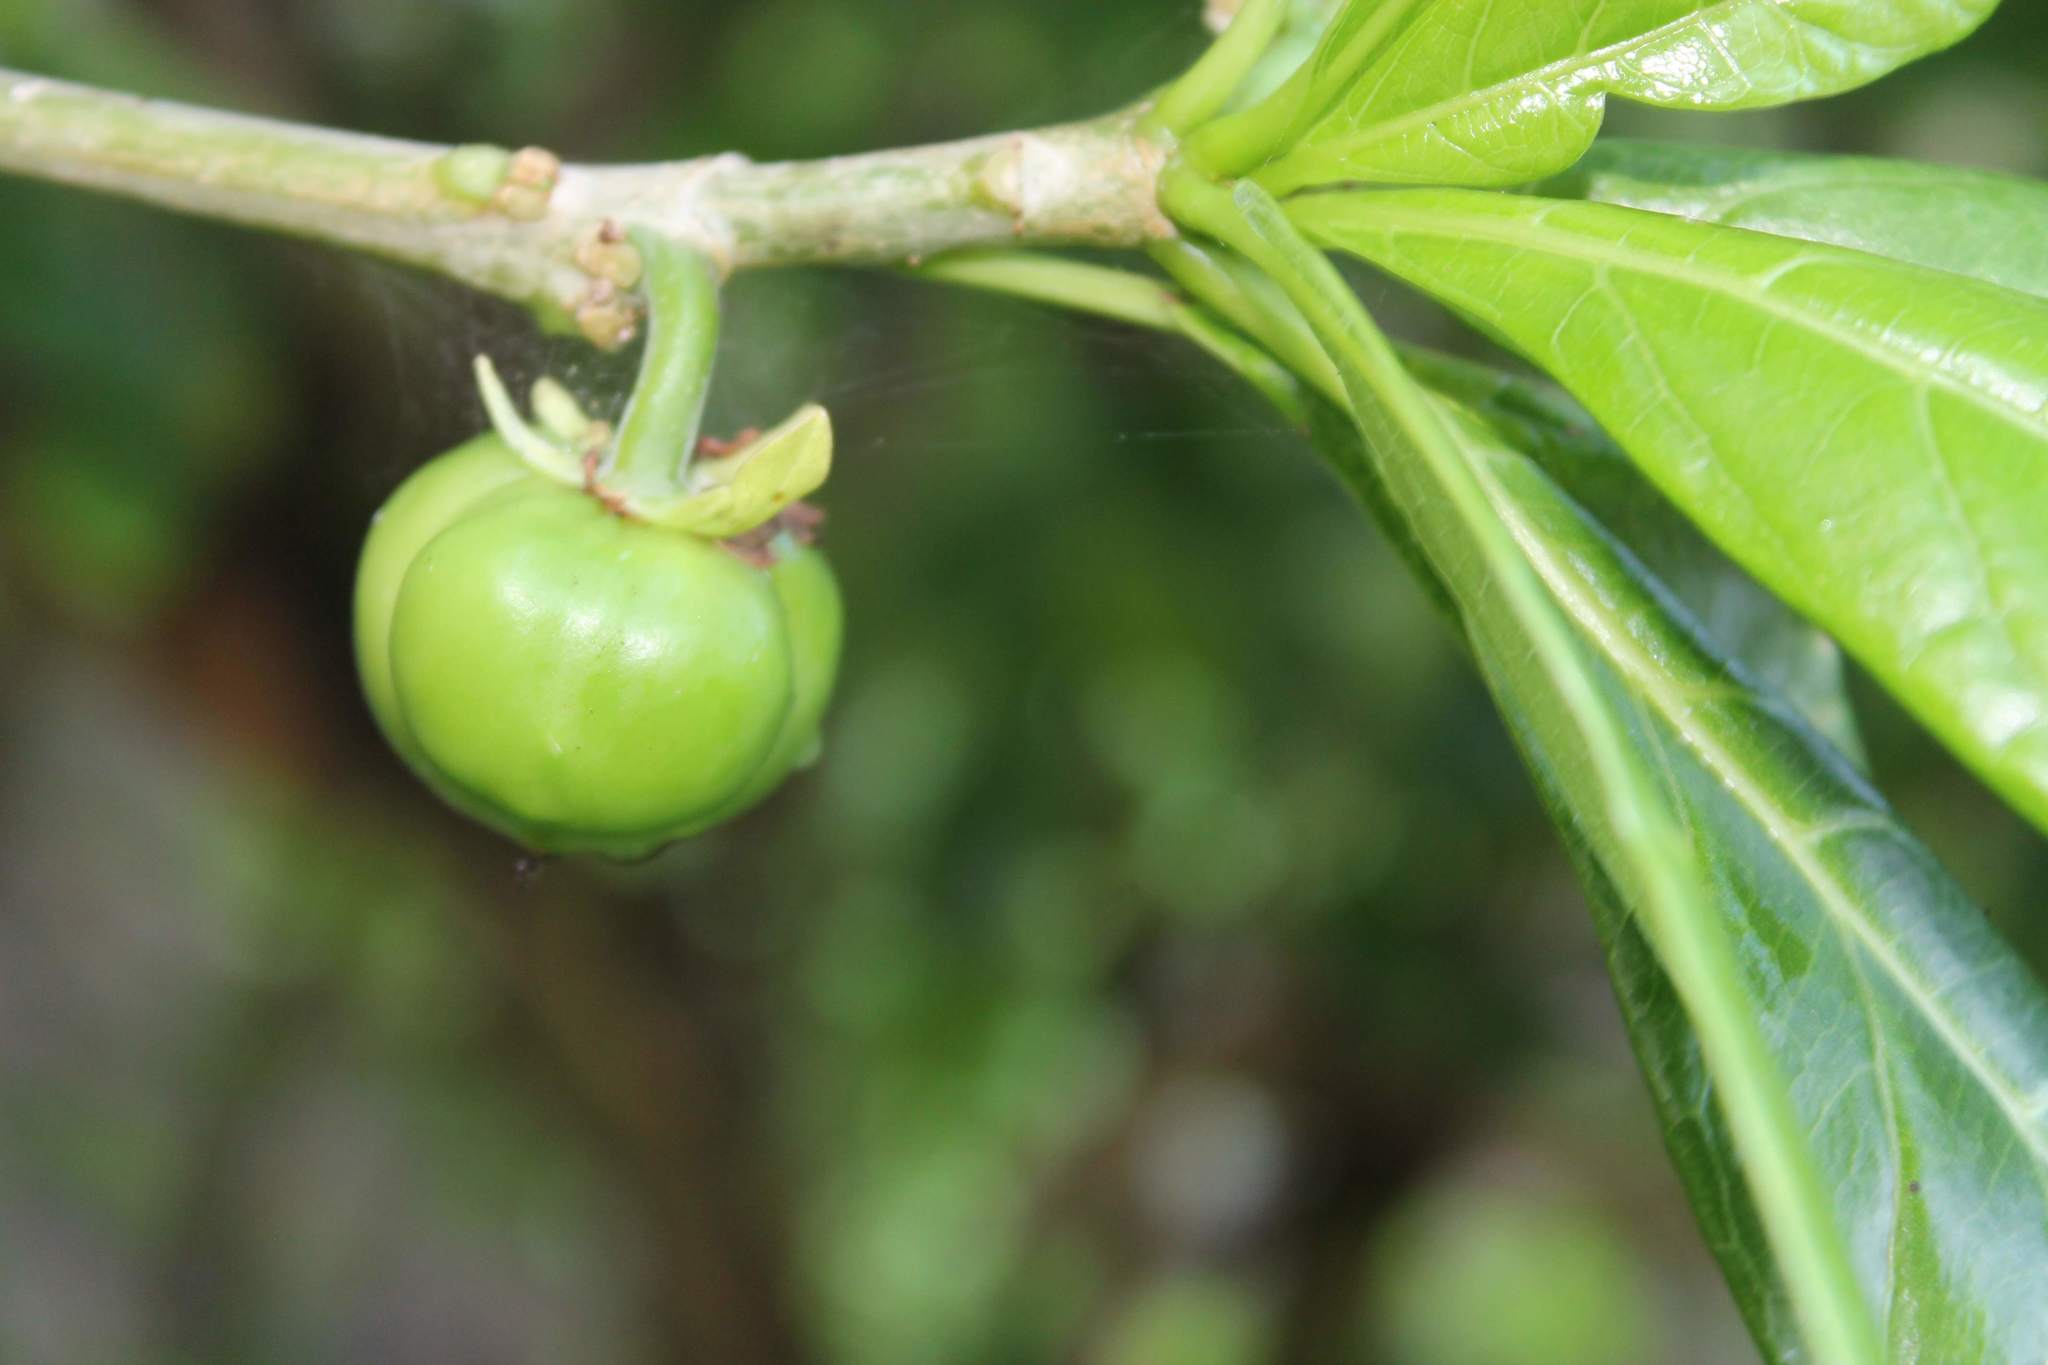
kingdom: Plantae
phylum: Tracheophyta
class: Magnoliopsida
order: Malpighiales
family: Euphorbiaceae
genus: Jatropha
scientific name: Jatropha standleyi
